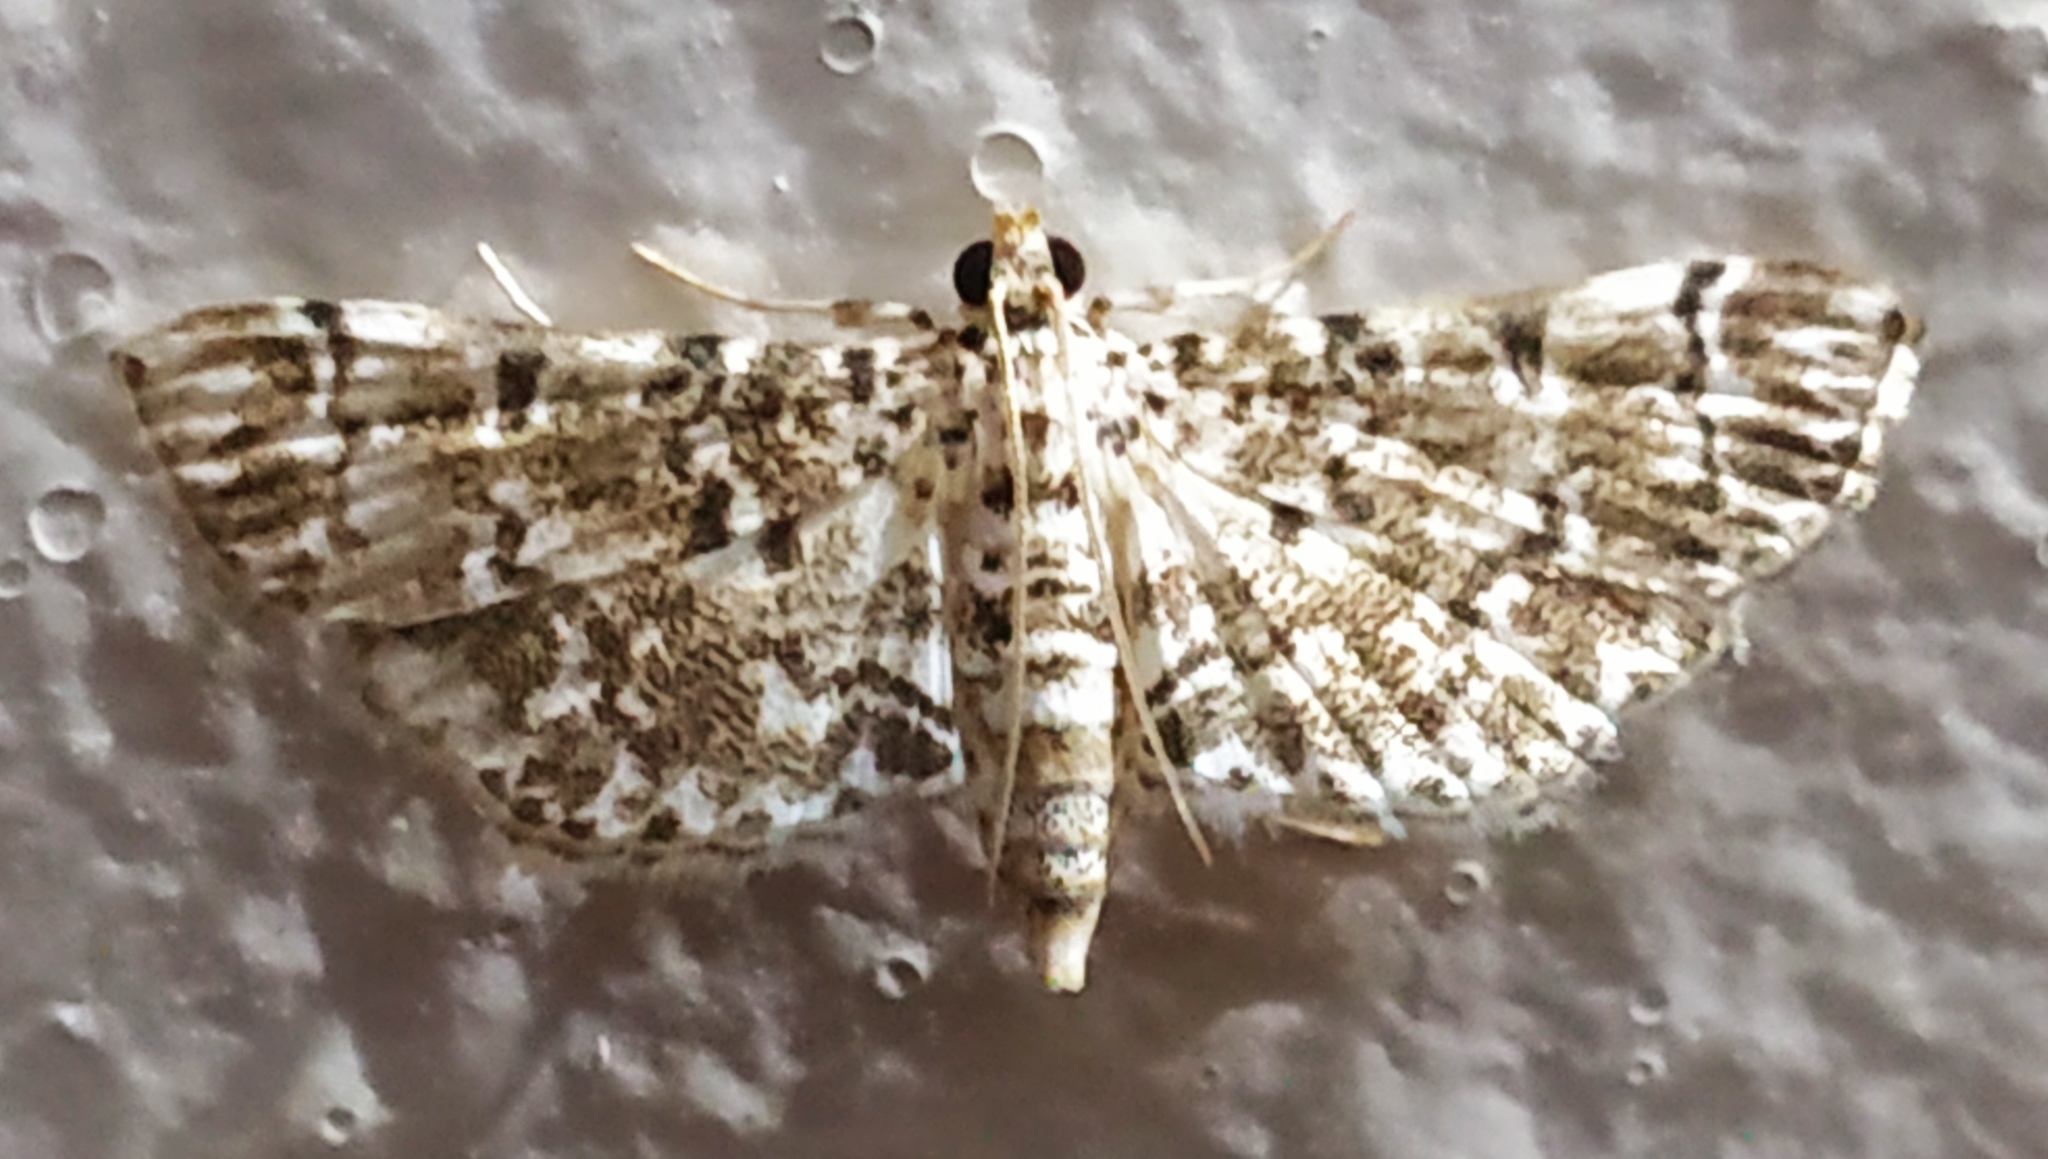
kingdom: Animalia
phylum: Arthropoda
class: Insecta
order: Lepidoptera
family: Crambidae
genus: Metoeca
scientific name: Metoeca foedalis
